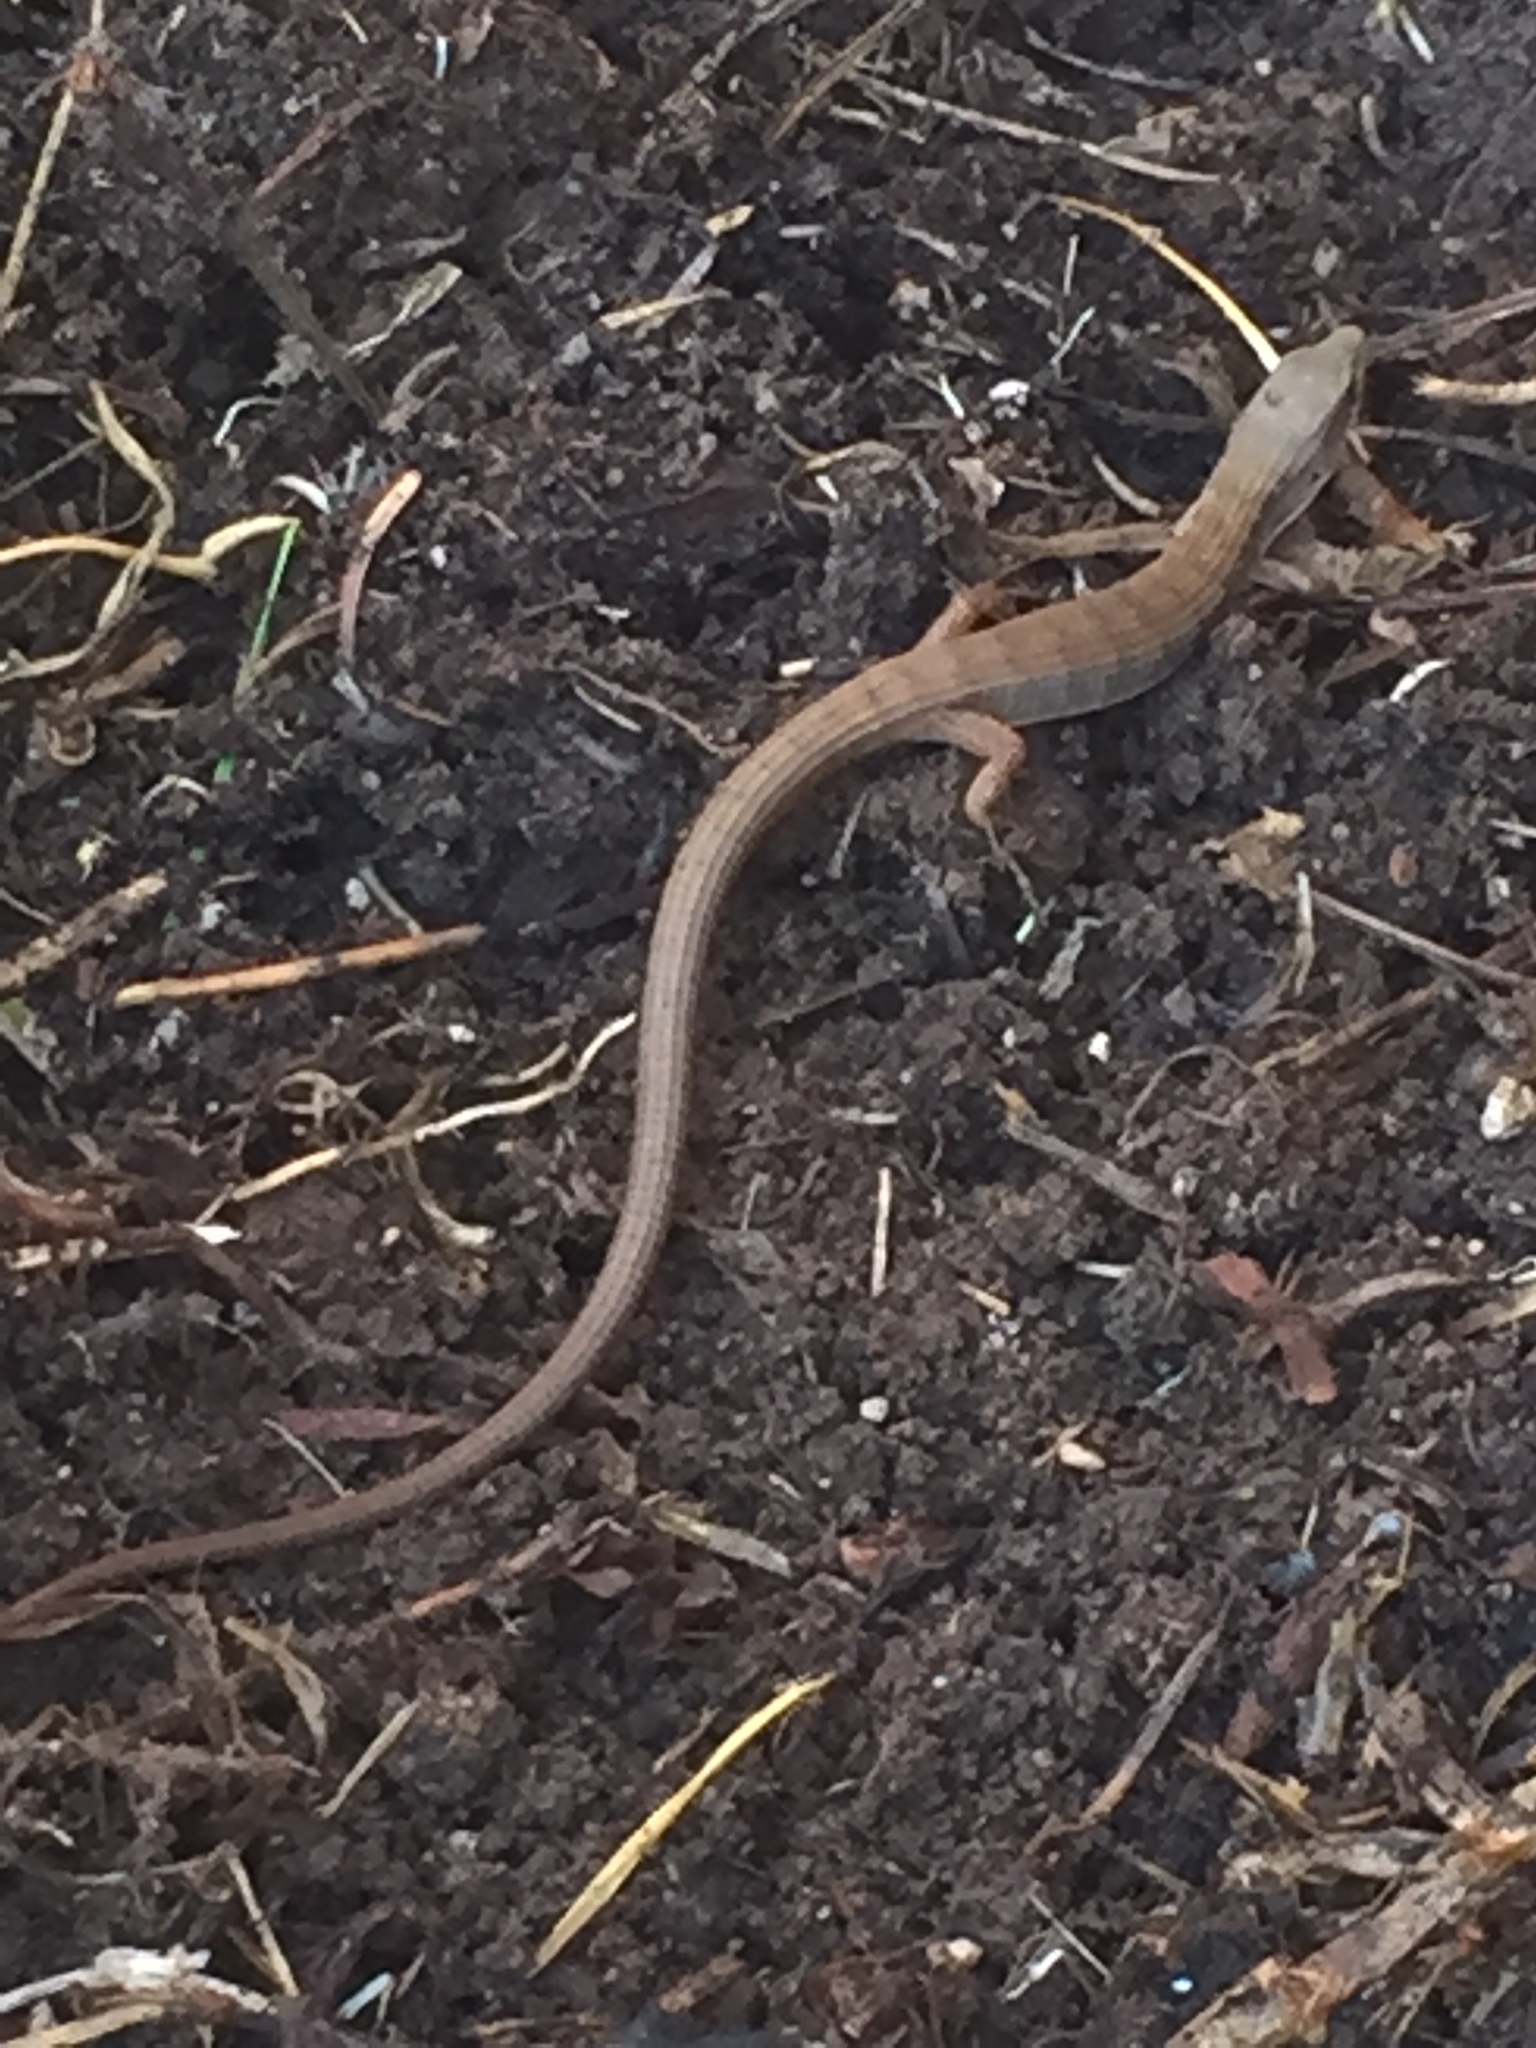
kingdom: Animalia
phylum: Chordata
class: Squamata
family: Anguidae
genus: Elgaria
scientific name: Elgaria multicarinata
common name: Southern alligator lizard
